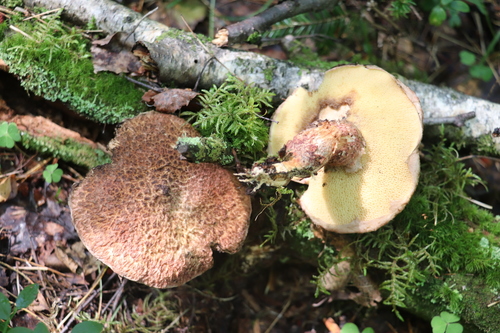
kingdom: Fungi
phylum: Basidiomycota
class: Agaricomycetes
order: Boletales
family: Suillaceae
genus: Suillus
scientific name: Suillus spraguei
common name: Painted suillus
